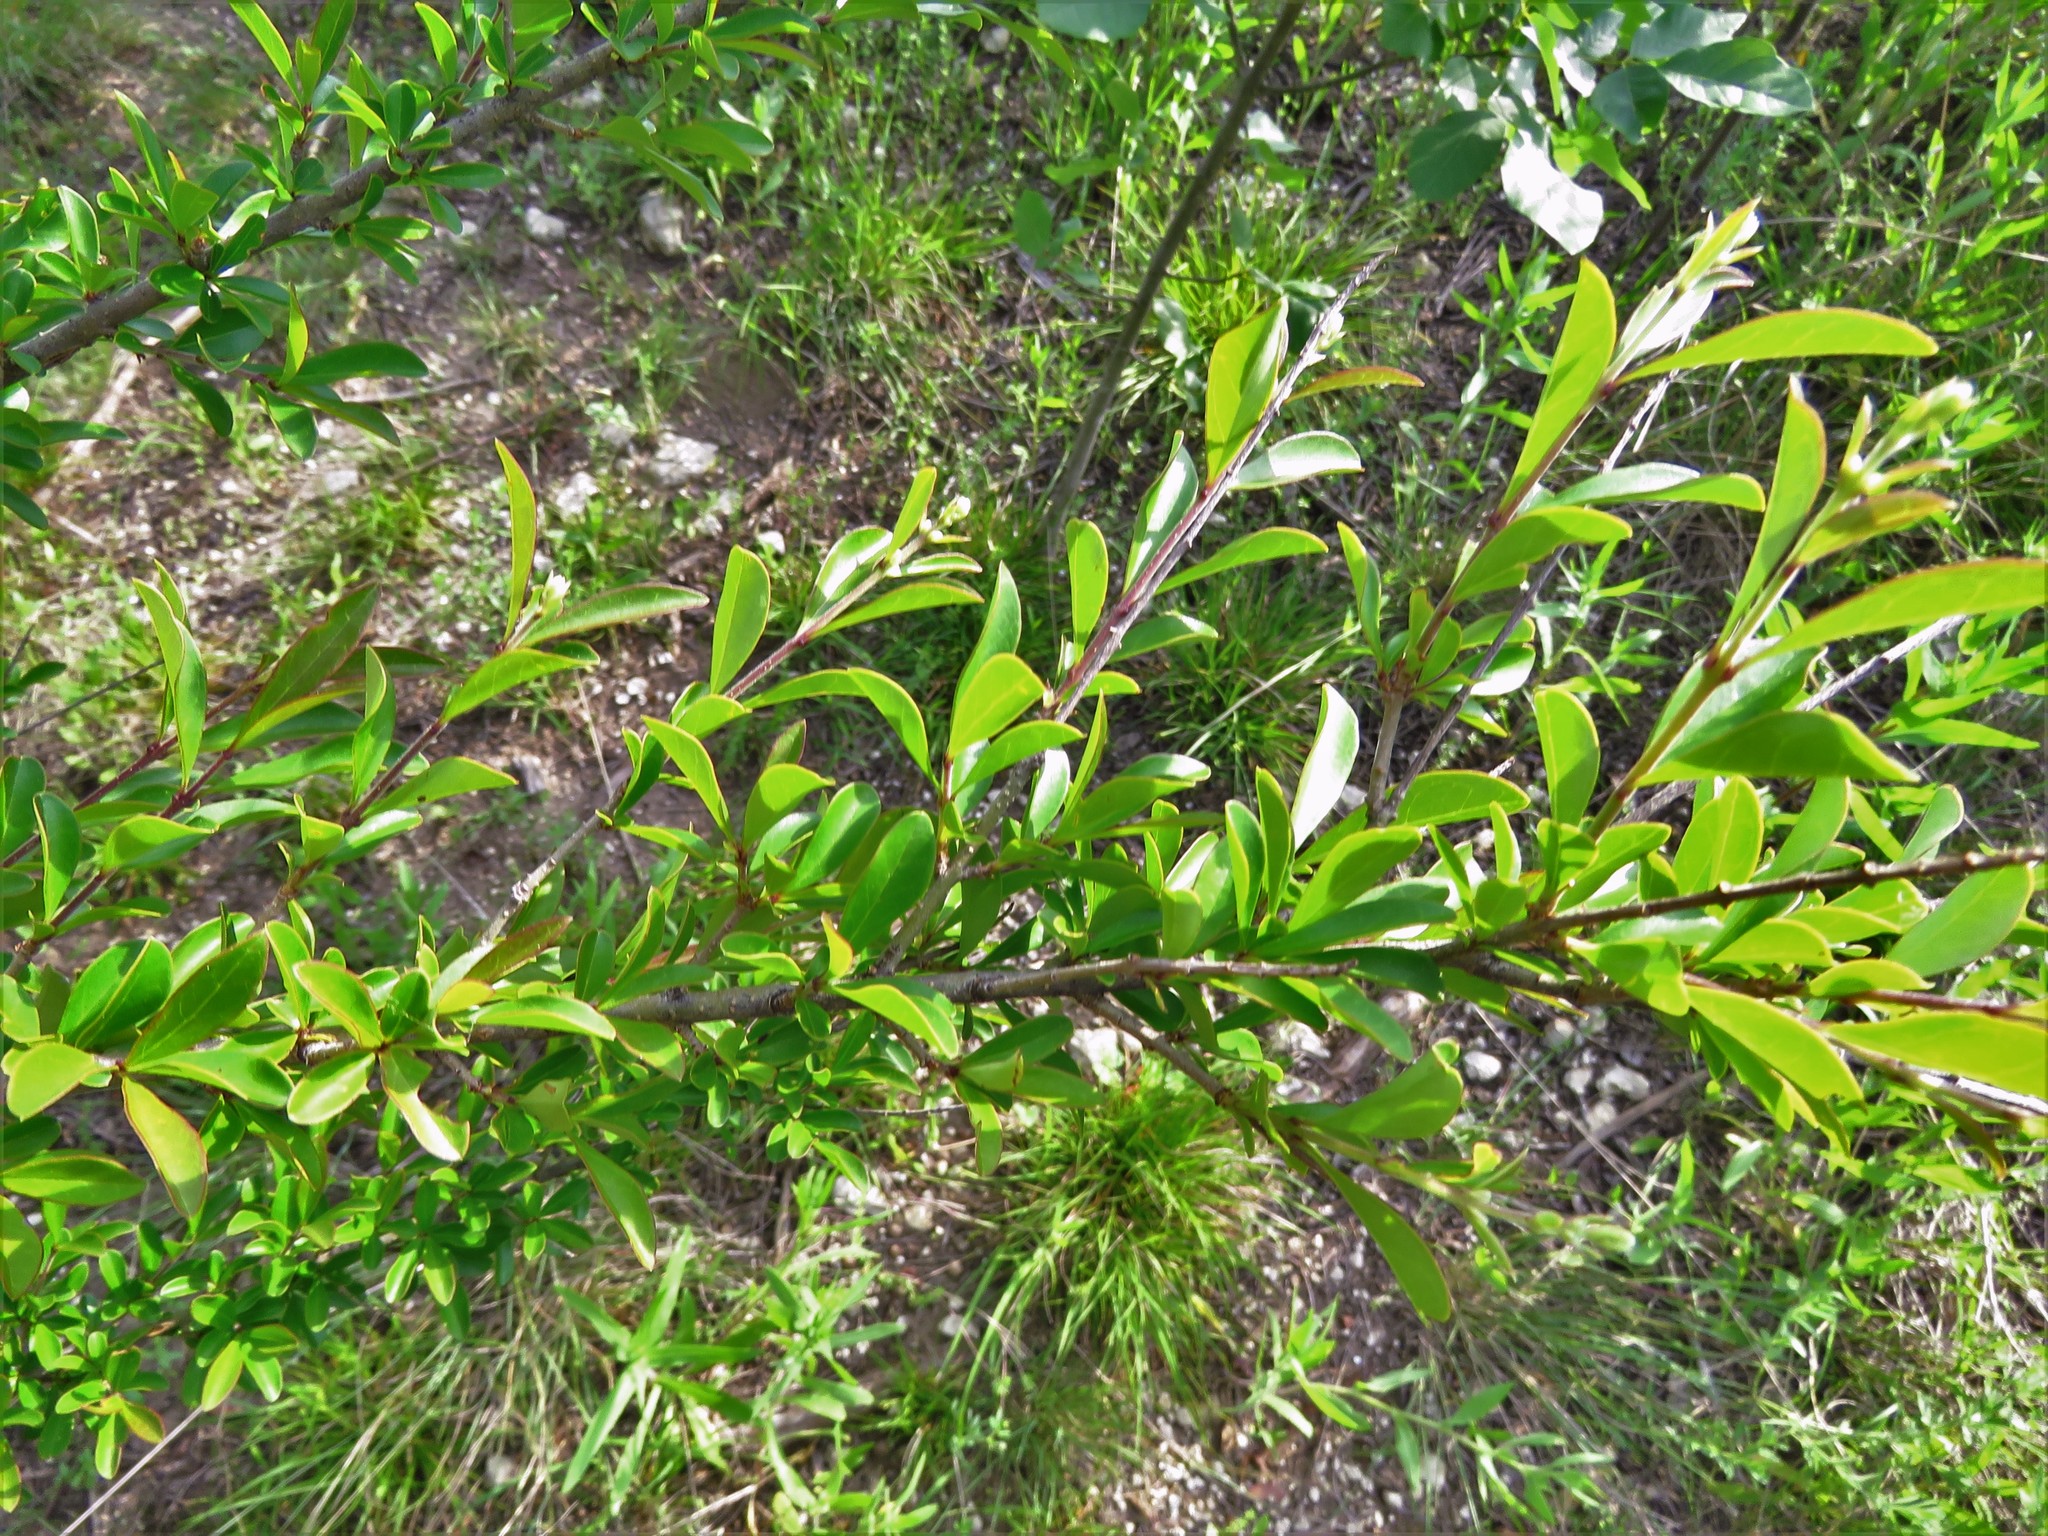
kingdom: Plantae
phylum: Tracheophyta
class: Magnoliopsida
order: Lamiales
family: Oleaceae
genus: Ligustrum
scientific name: Ligustrum quihoui
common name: Waxyleaf privet
